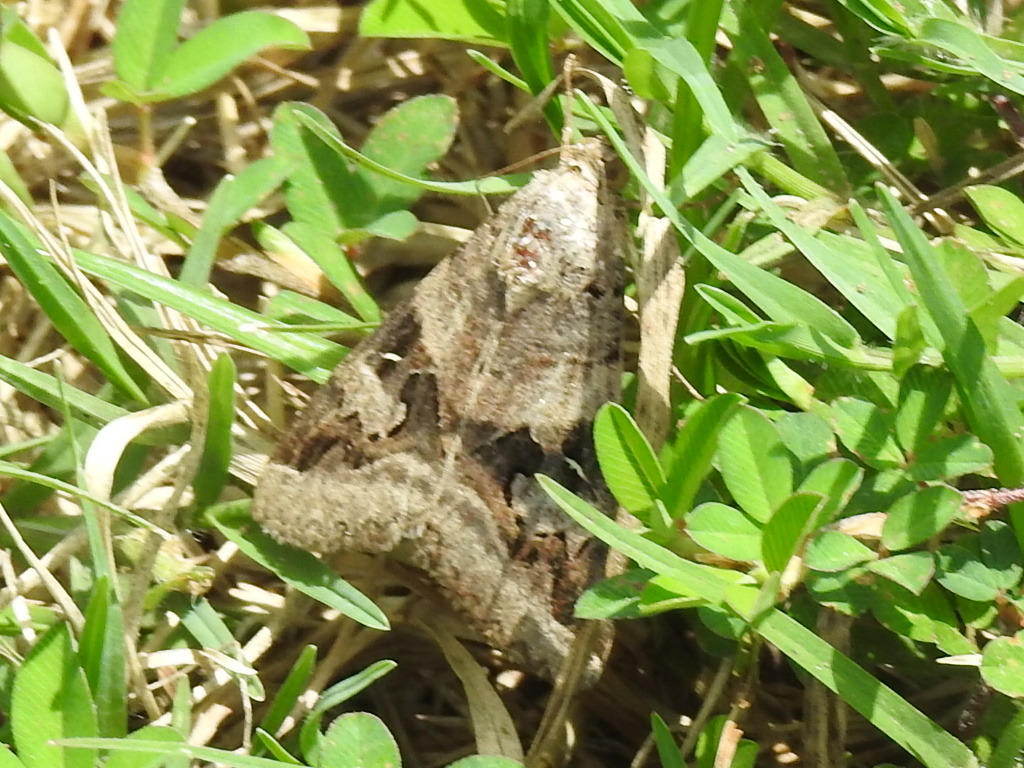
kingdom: Animalia
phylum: Arthropoda
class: Insecta
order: Lepidoptera
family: Erebidae
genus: Melipotis
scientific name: Melipotis indomita
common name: Moth
